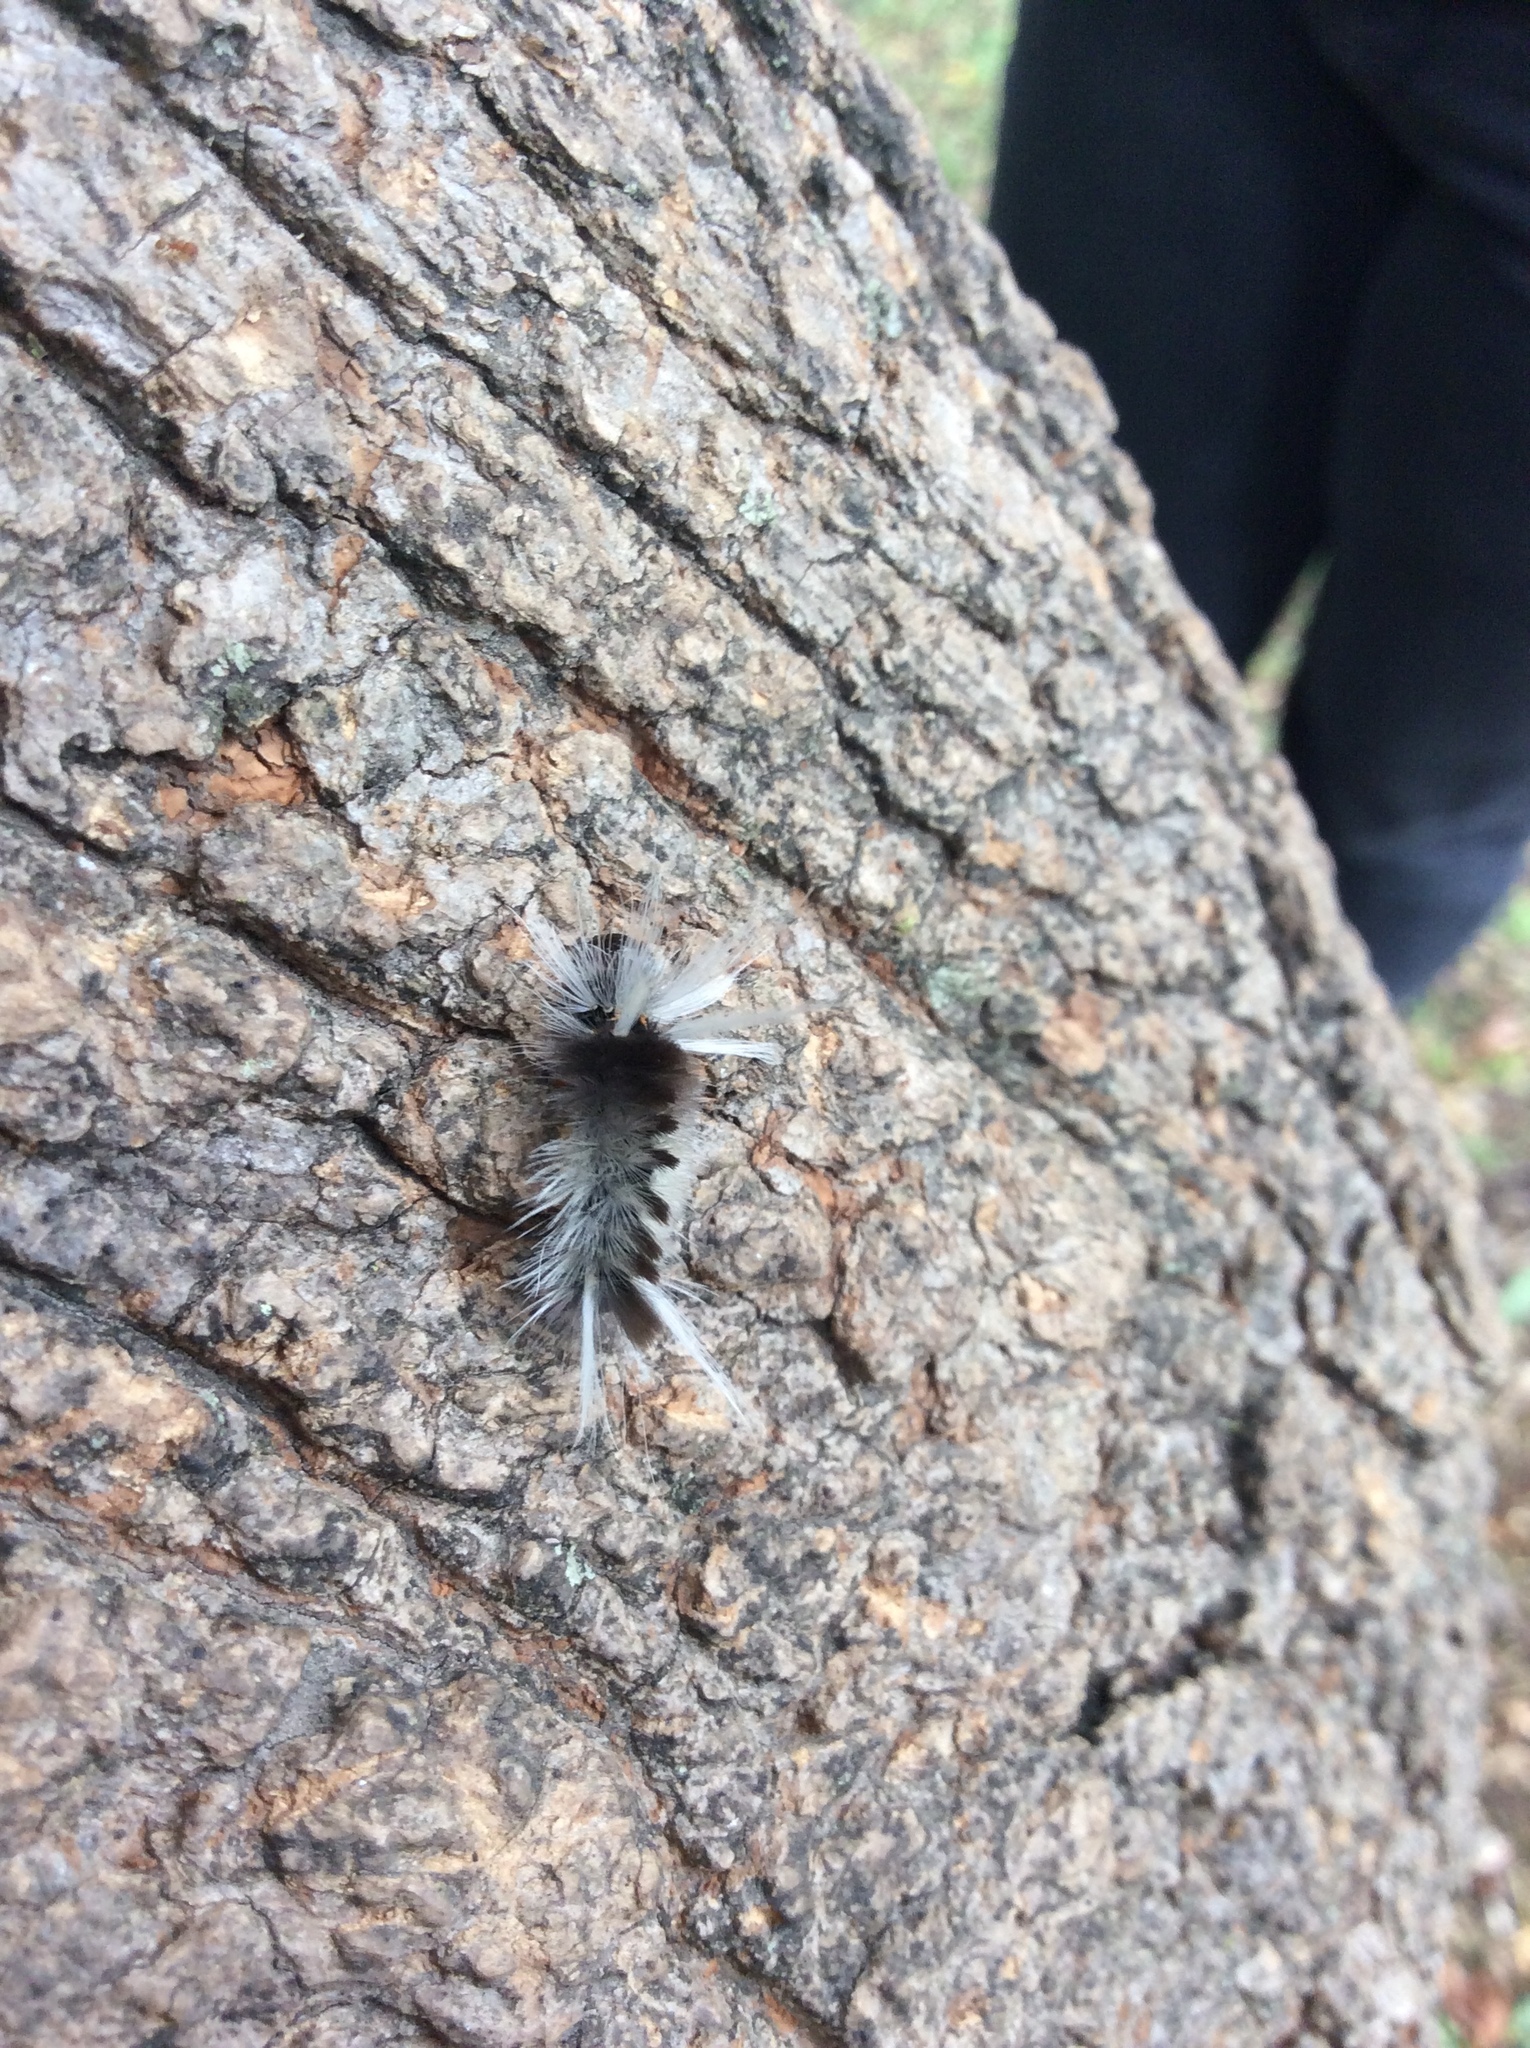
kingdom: Animalia
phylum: Arthropoda
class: Insecta
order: Lepidoptera
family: Erebidae
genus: Halysidota
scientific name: Halysidota schausi
